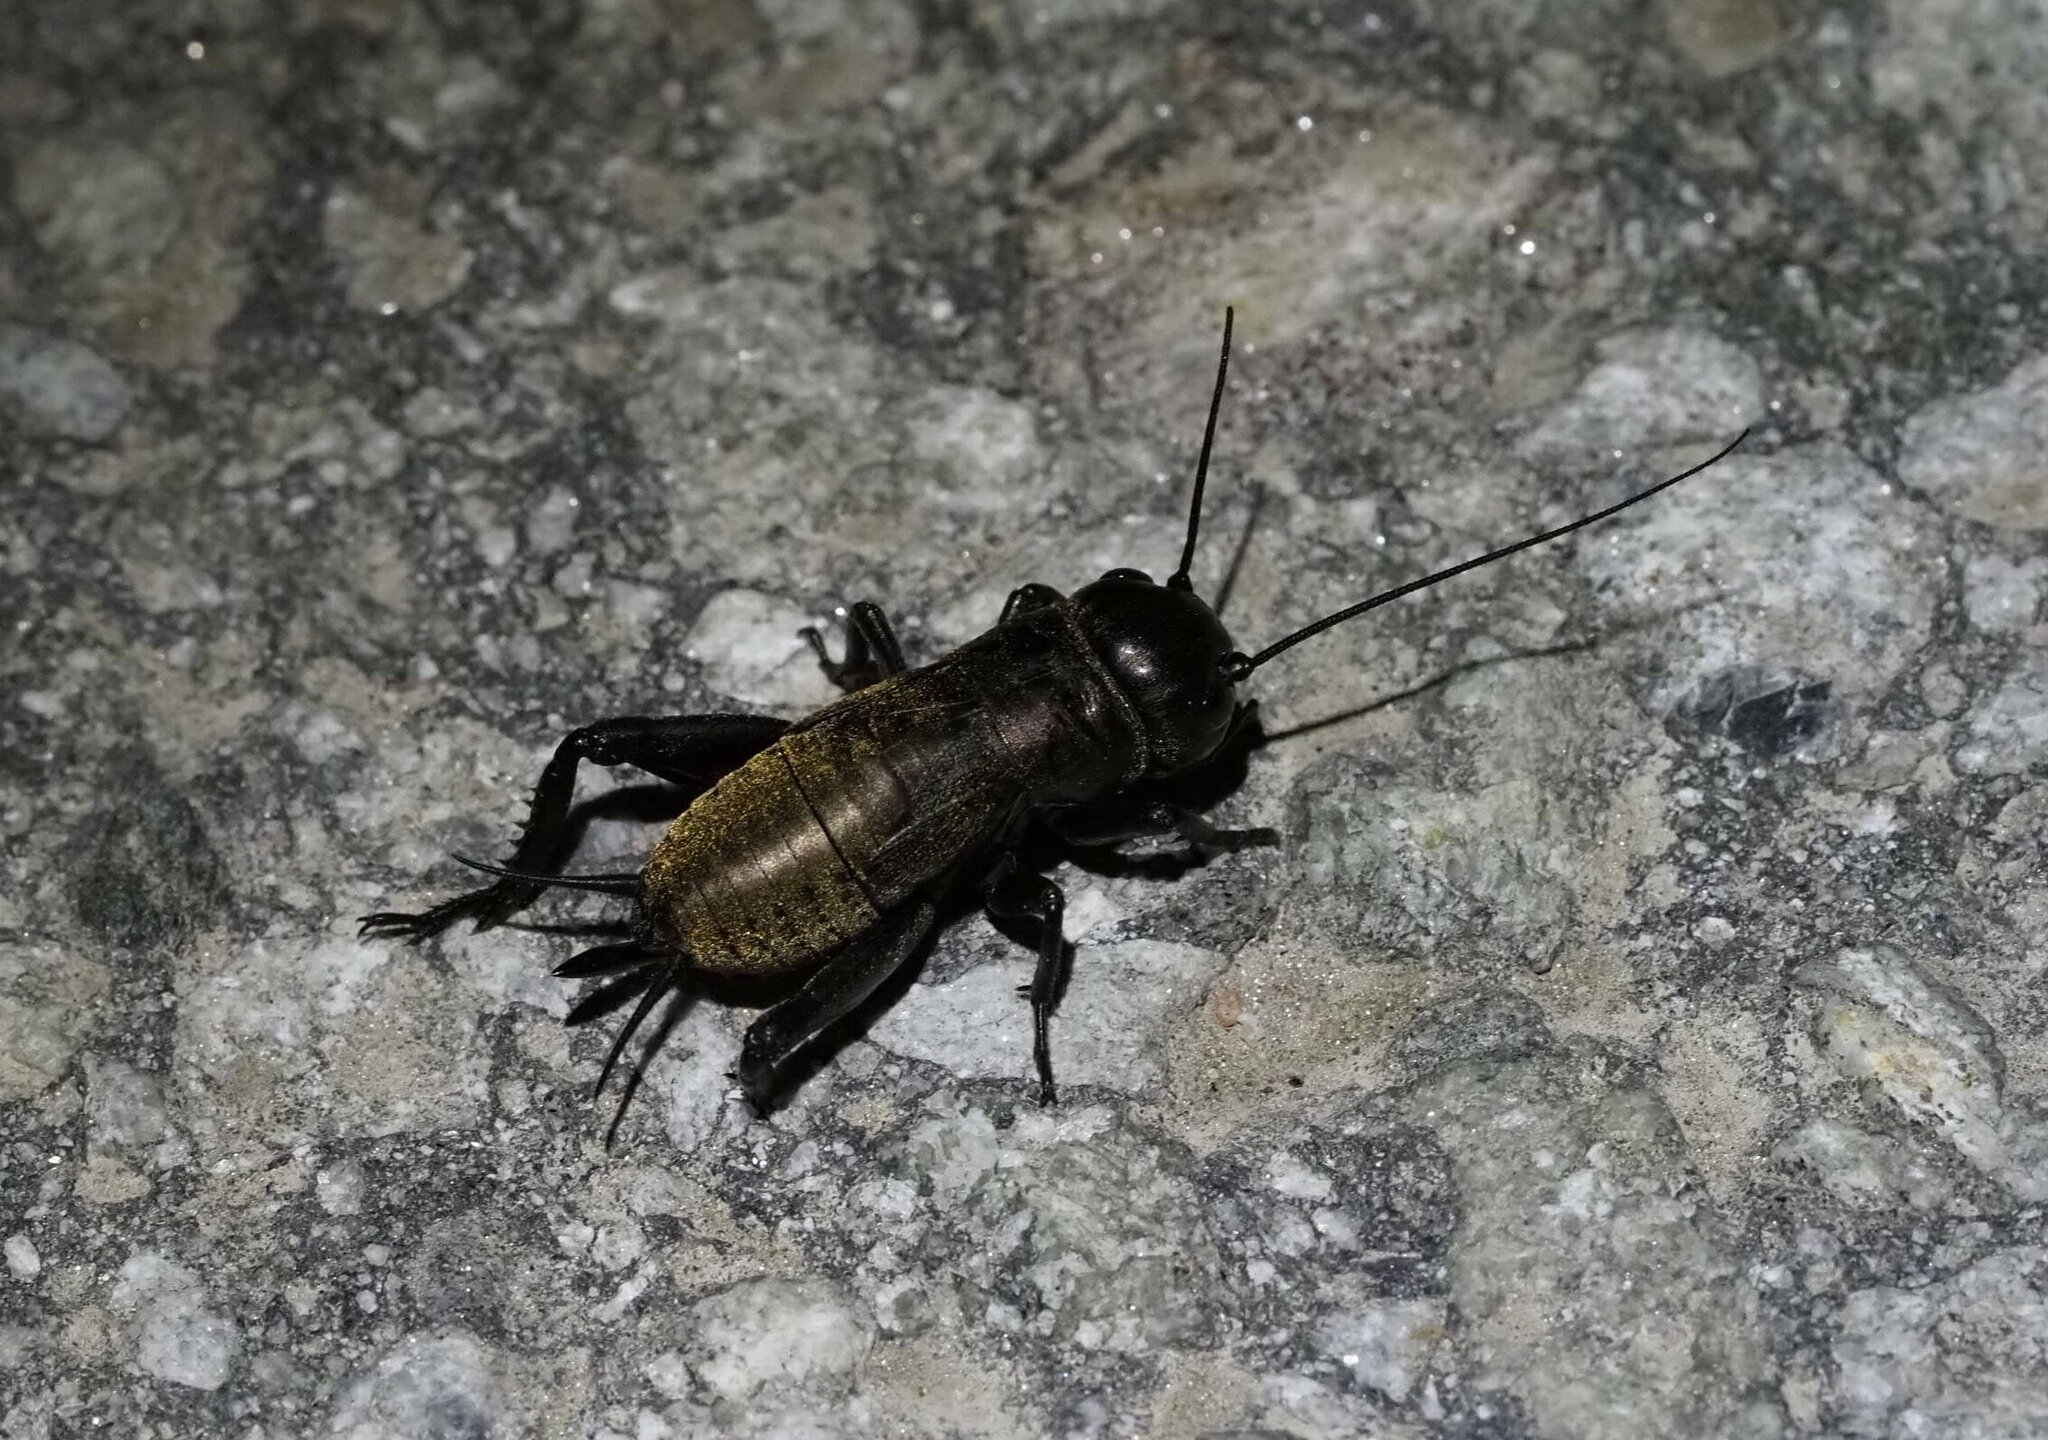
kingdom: Animalia
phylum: Arthropoda
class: Insecta
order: Orthoptera
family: Gryllidae
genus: Gryllus
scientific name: Gryllus campestris
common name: Field cricket
